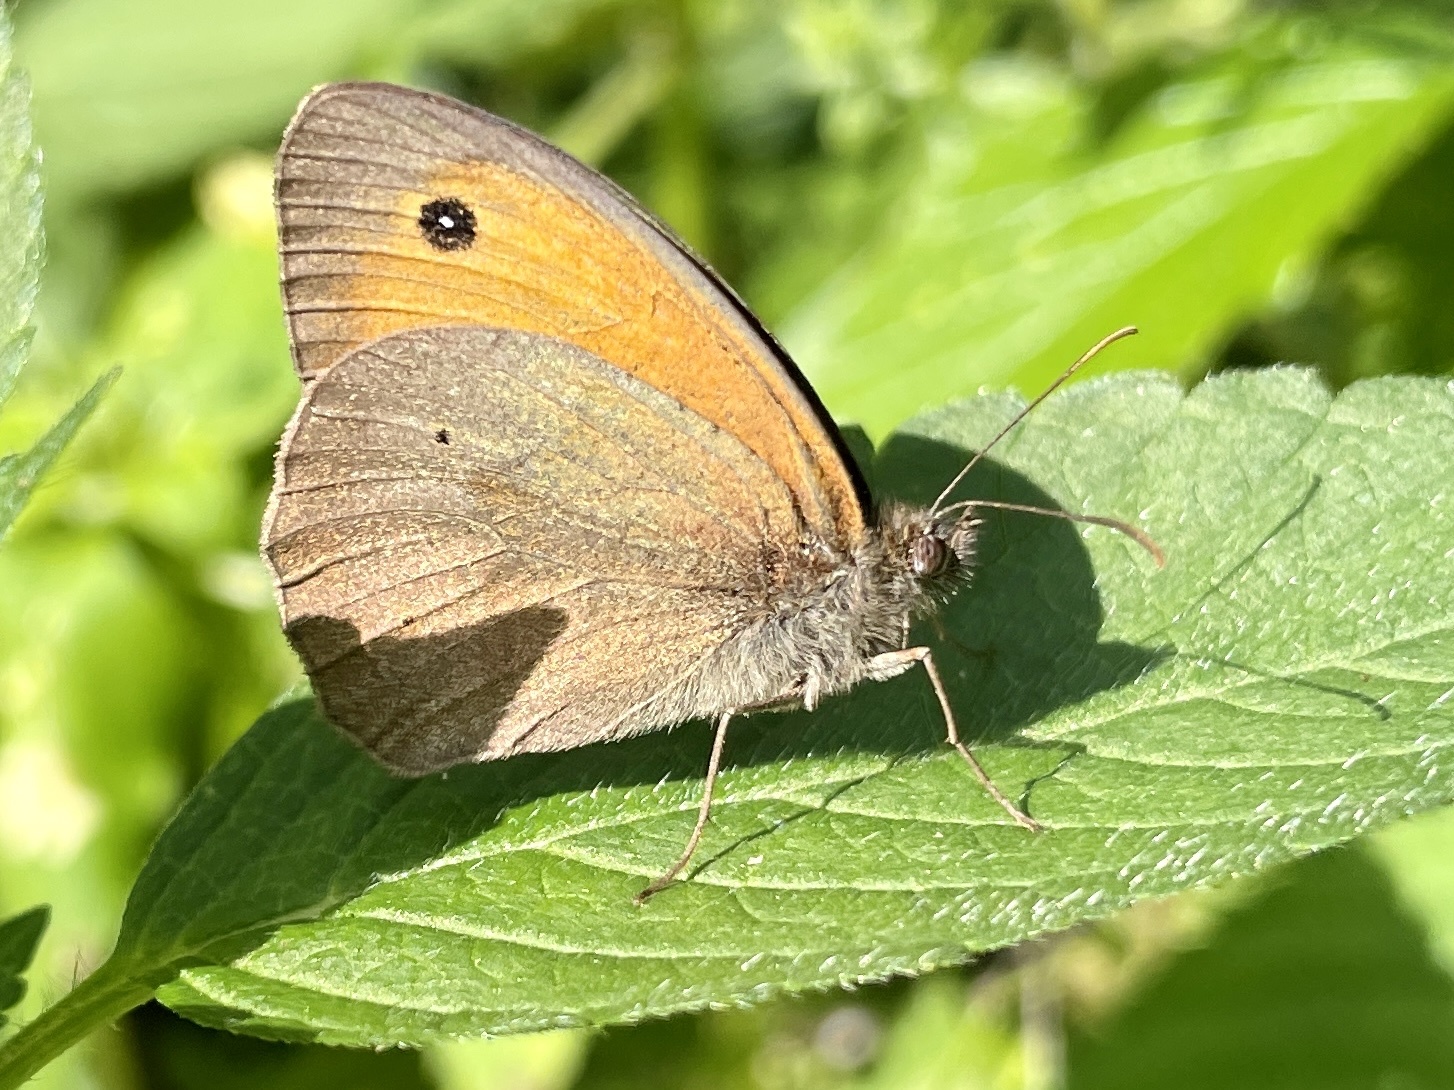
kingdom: Animalia
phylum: Arthropoda
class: Insecta
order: Lepidoptera
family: Nymphalidae
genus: Maniola
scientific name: Maniola jurtina
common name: Meadow brown
